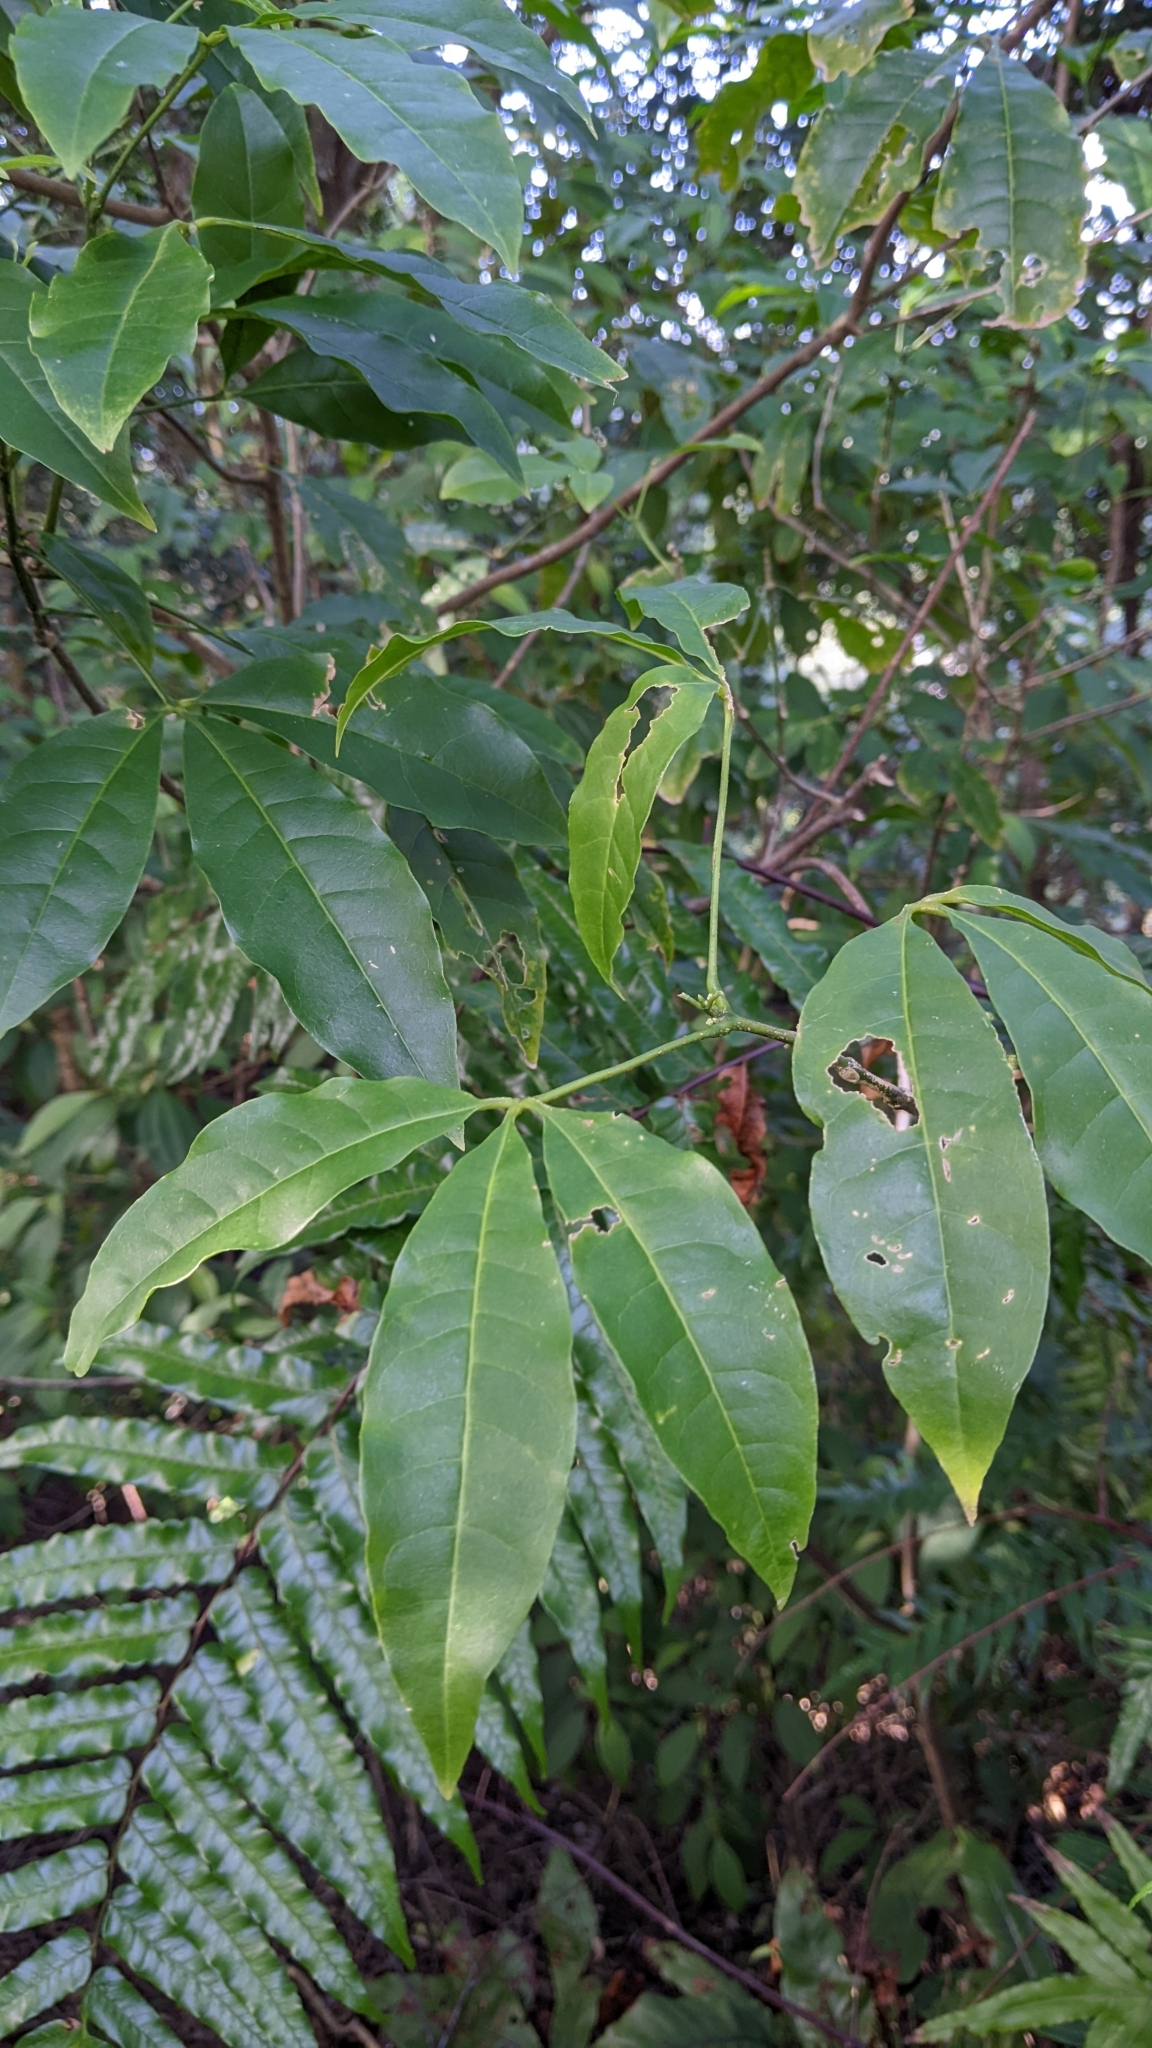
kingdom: Plantae
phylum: Tracheophyta
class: Magnoliopsida
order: Sapindales
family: Rutaceae
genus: Melicope
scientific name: Melicope pteleifolia
